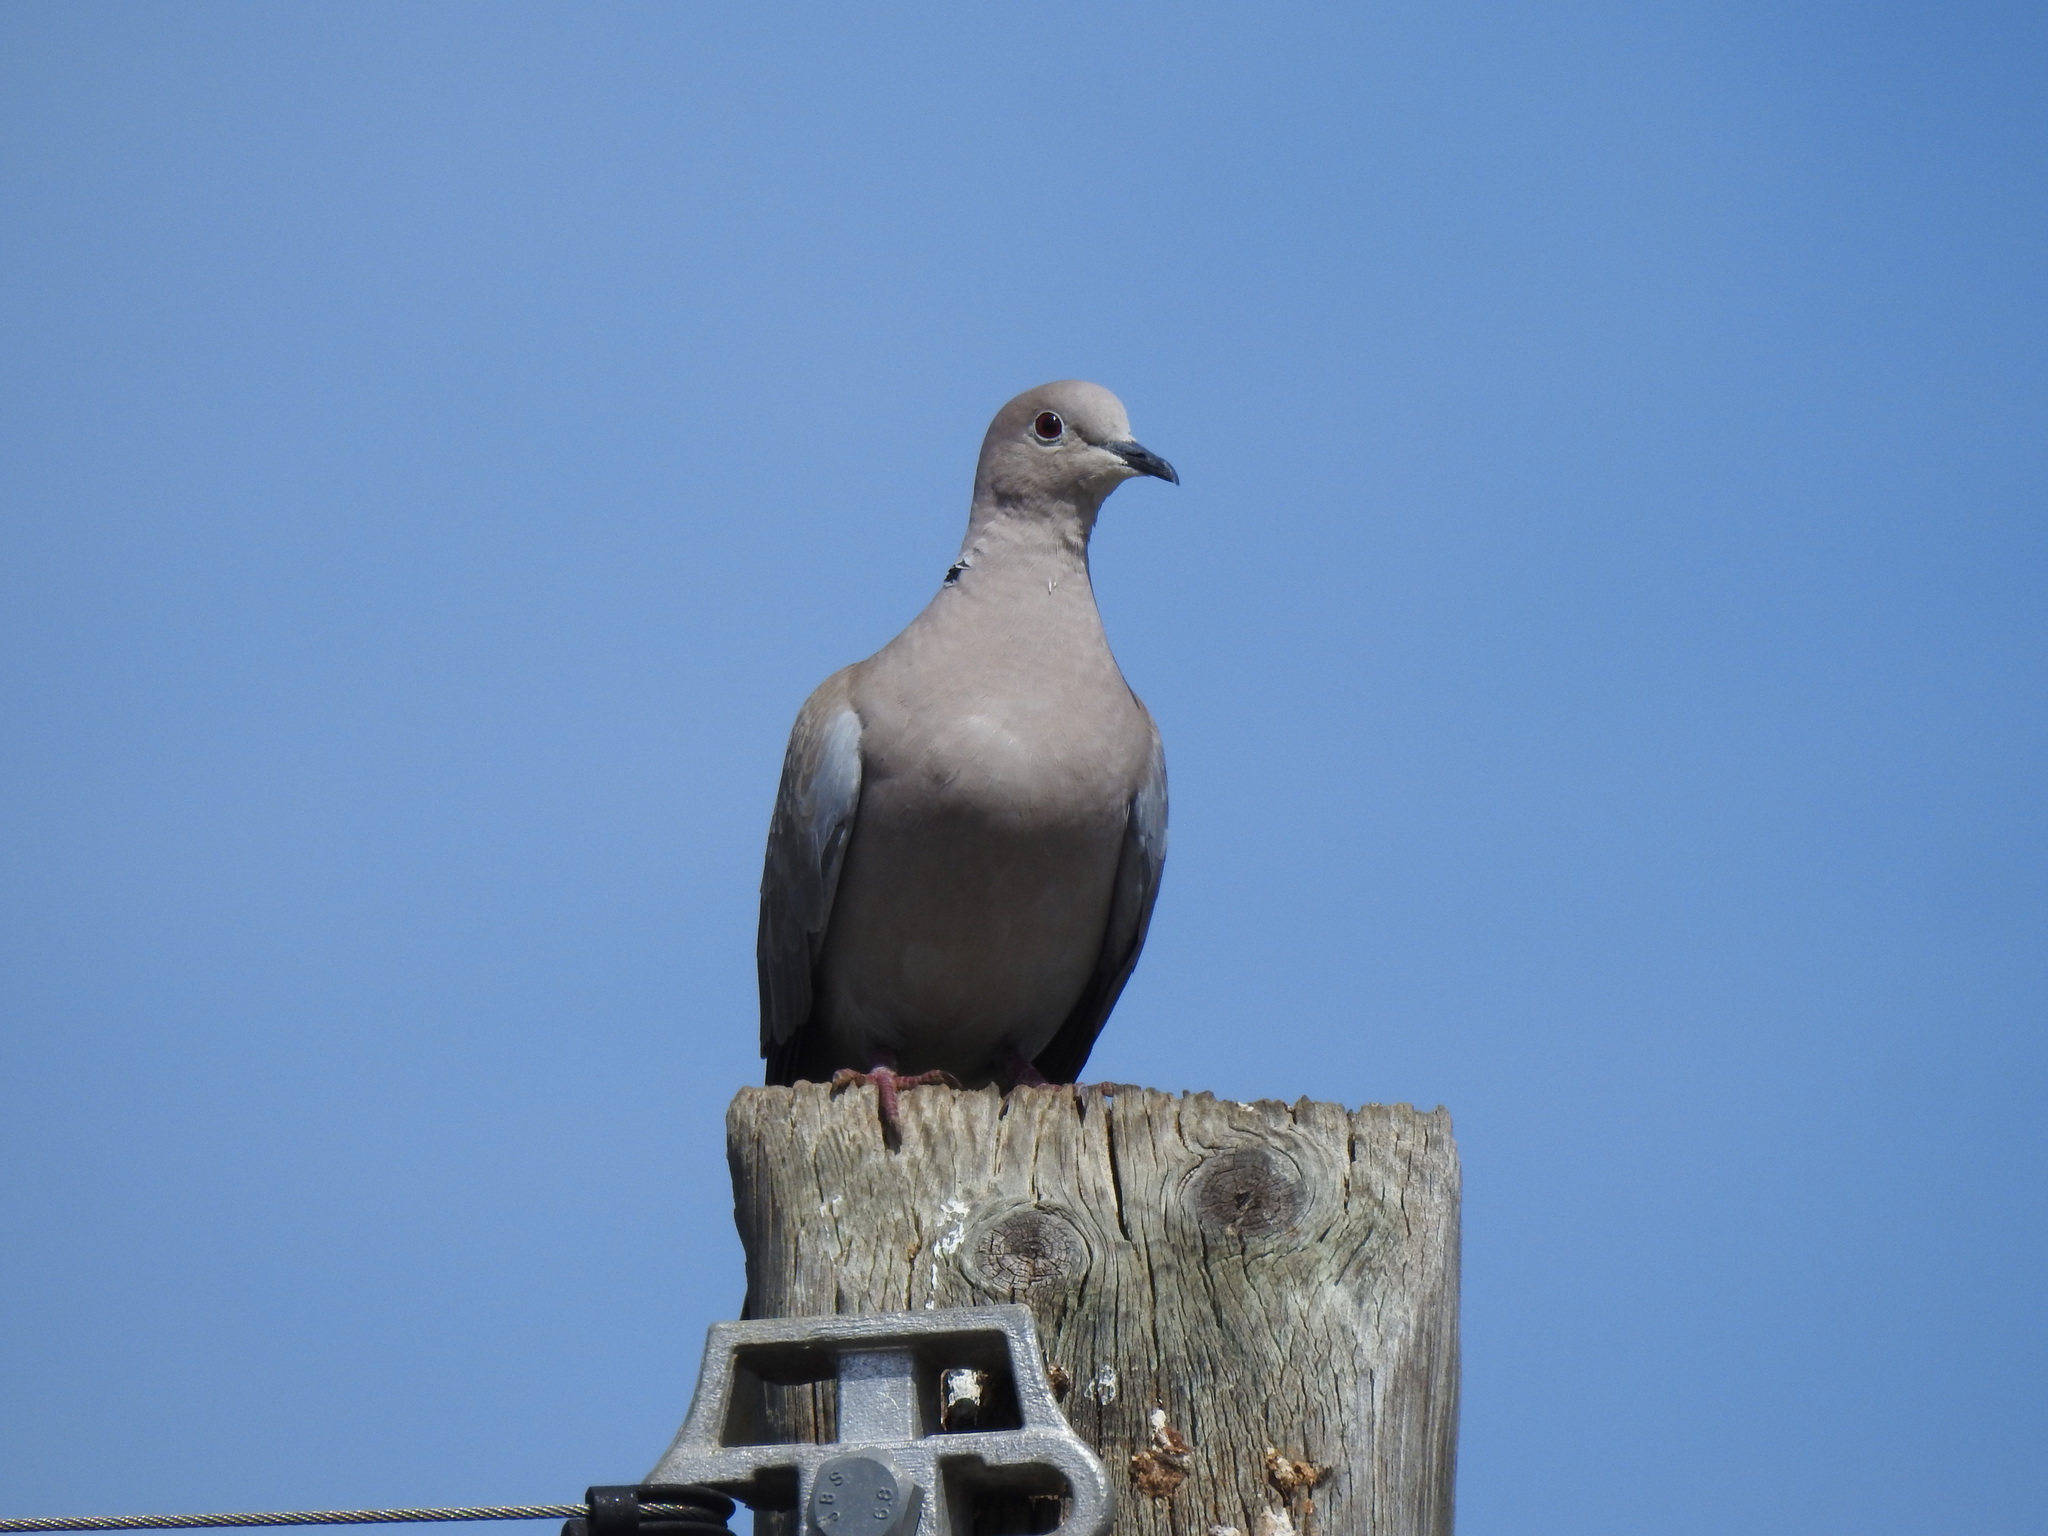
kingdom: Animalia
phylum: Chordata
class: Aves
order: Columbiformes
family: Columbidae
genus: Streptopelia
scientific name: Streptopelia decaocto
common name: Eurasian collared dove
